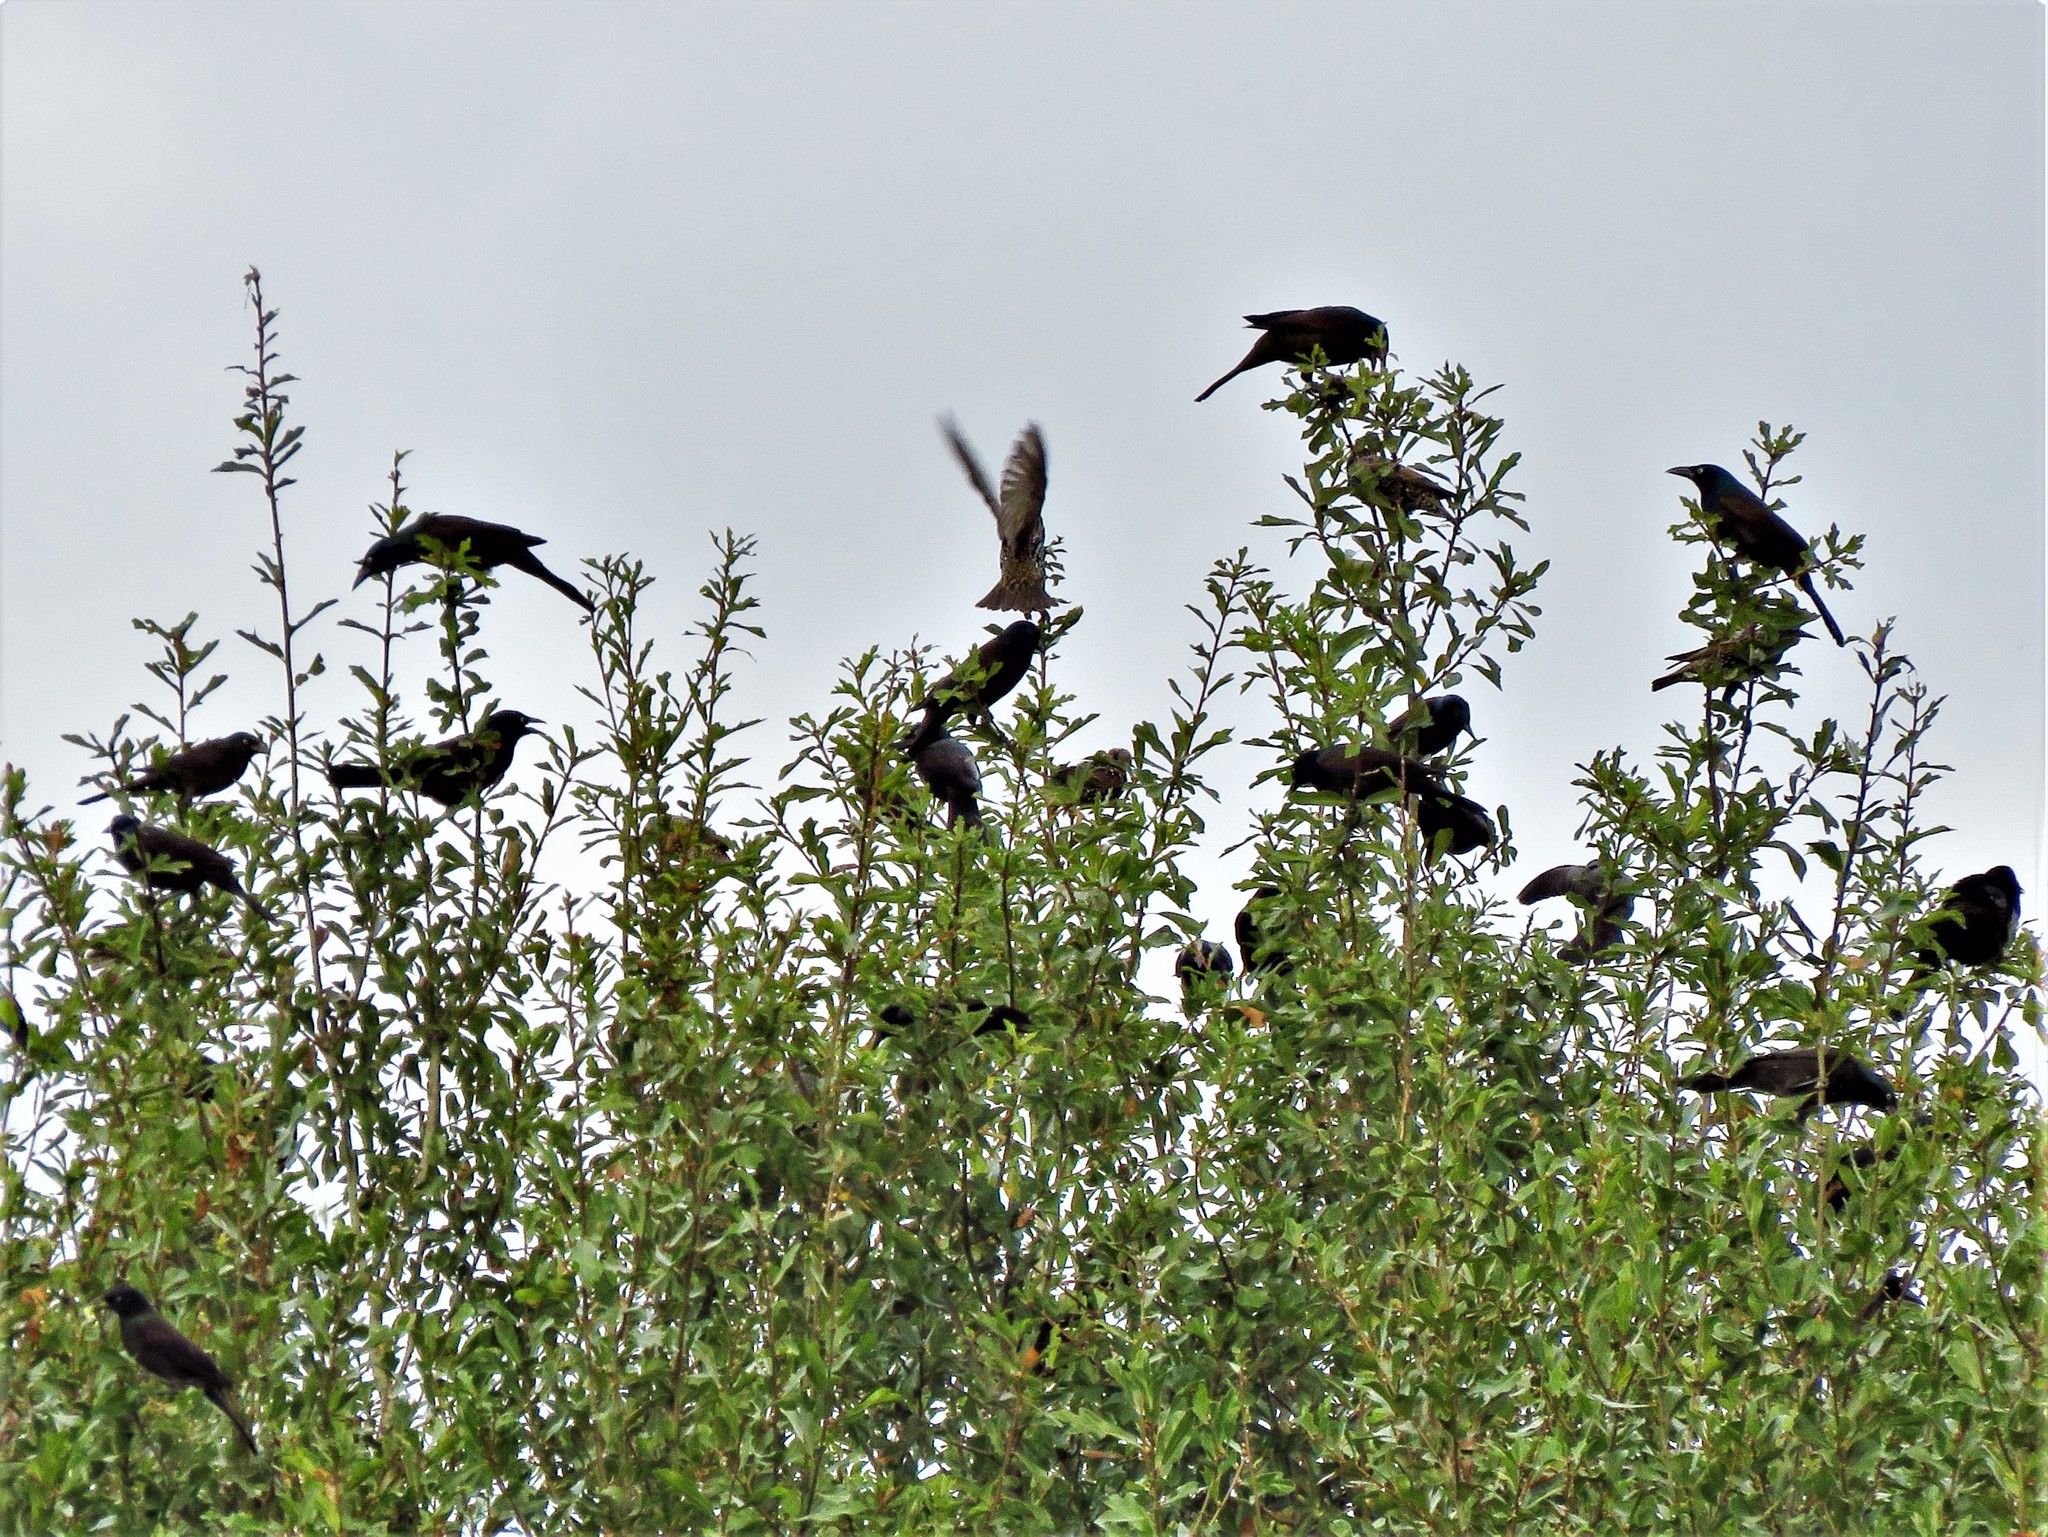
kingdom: Animalia
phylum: Chordata
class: Aves
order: Passeriformes
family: Icteridae
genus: Quiscalus
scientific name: Quiscalus quiscula
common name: Common grackle
